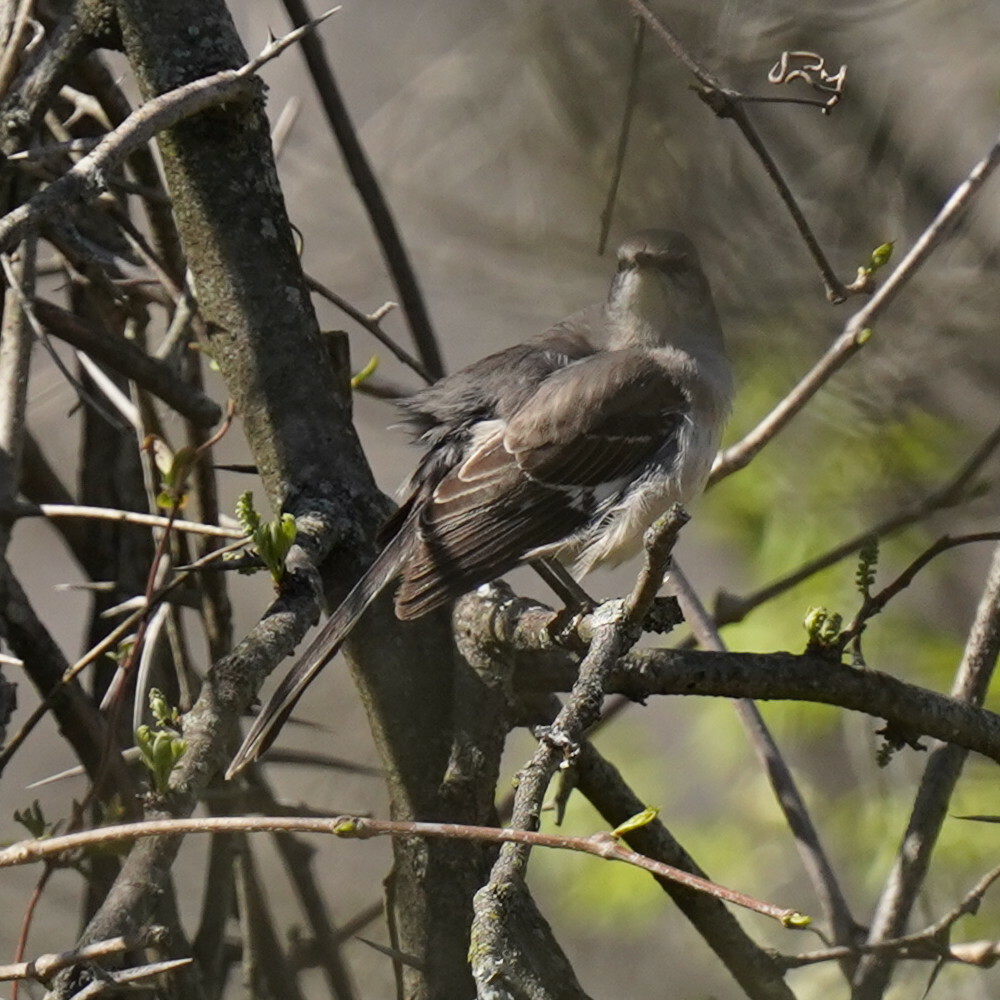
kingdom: Animalia
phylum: Chordata
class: Aves
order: Passeriformes
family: Mimidae
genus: Mimus
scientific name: Mimus polyglottos
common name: Northern mockingbird
